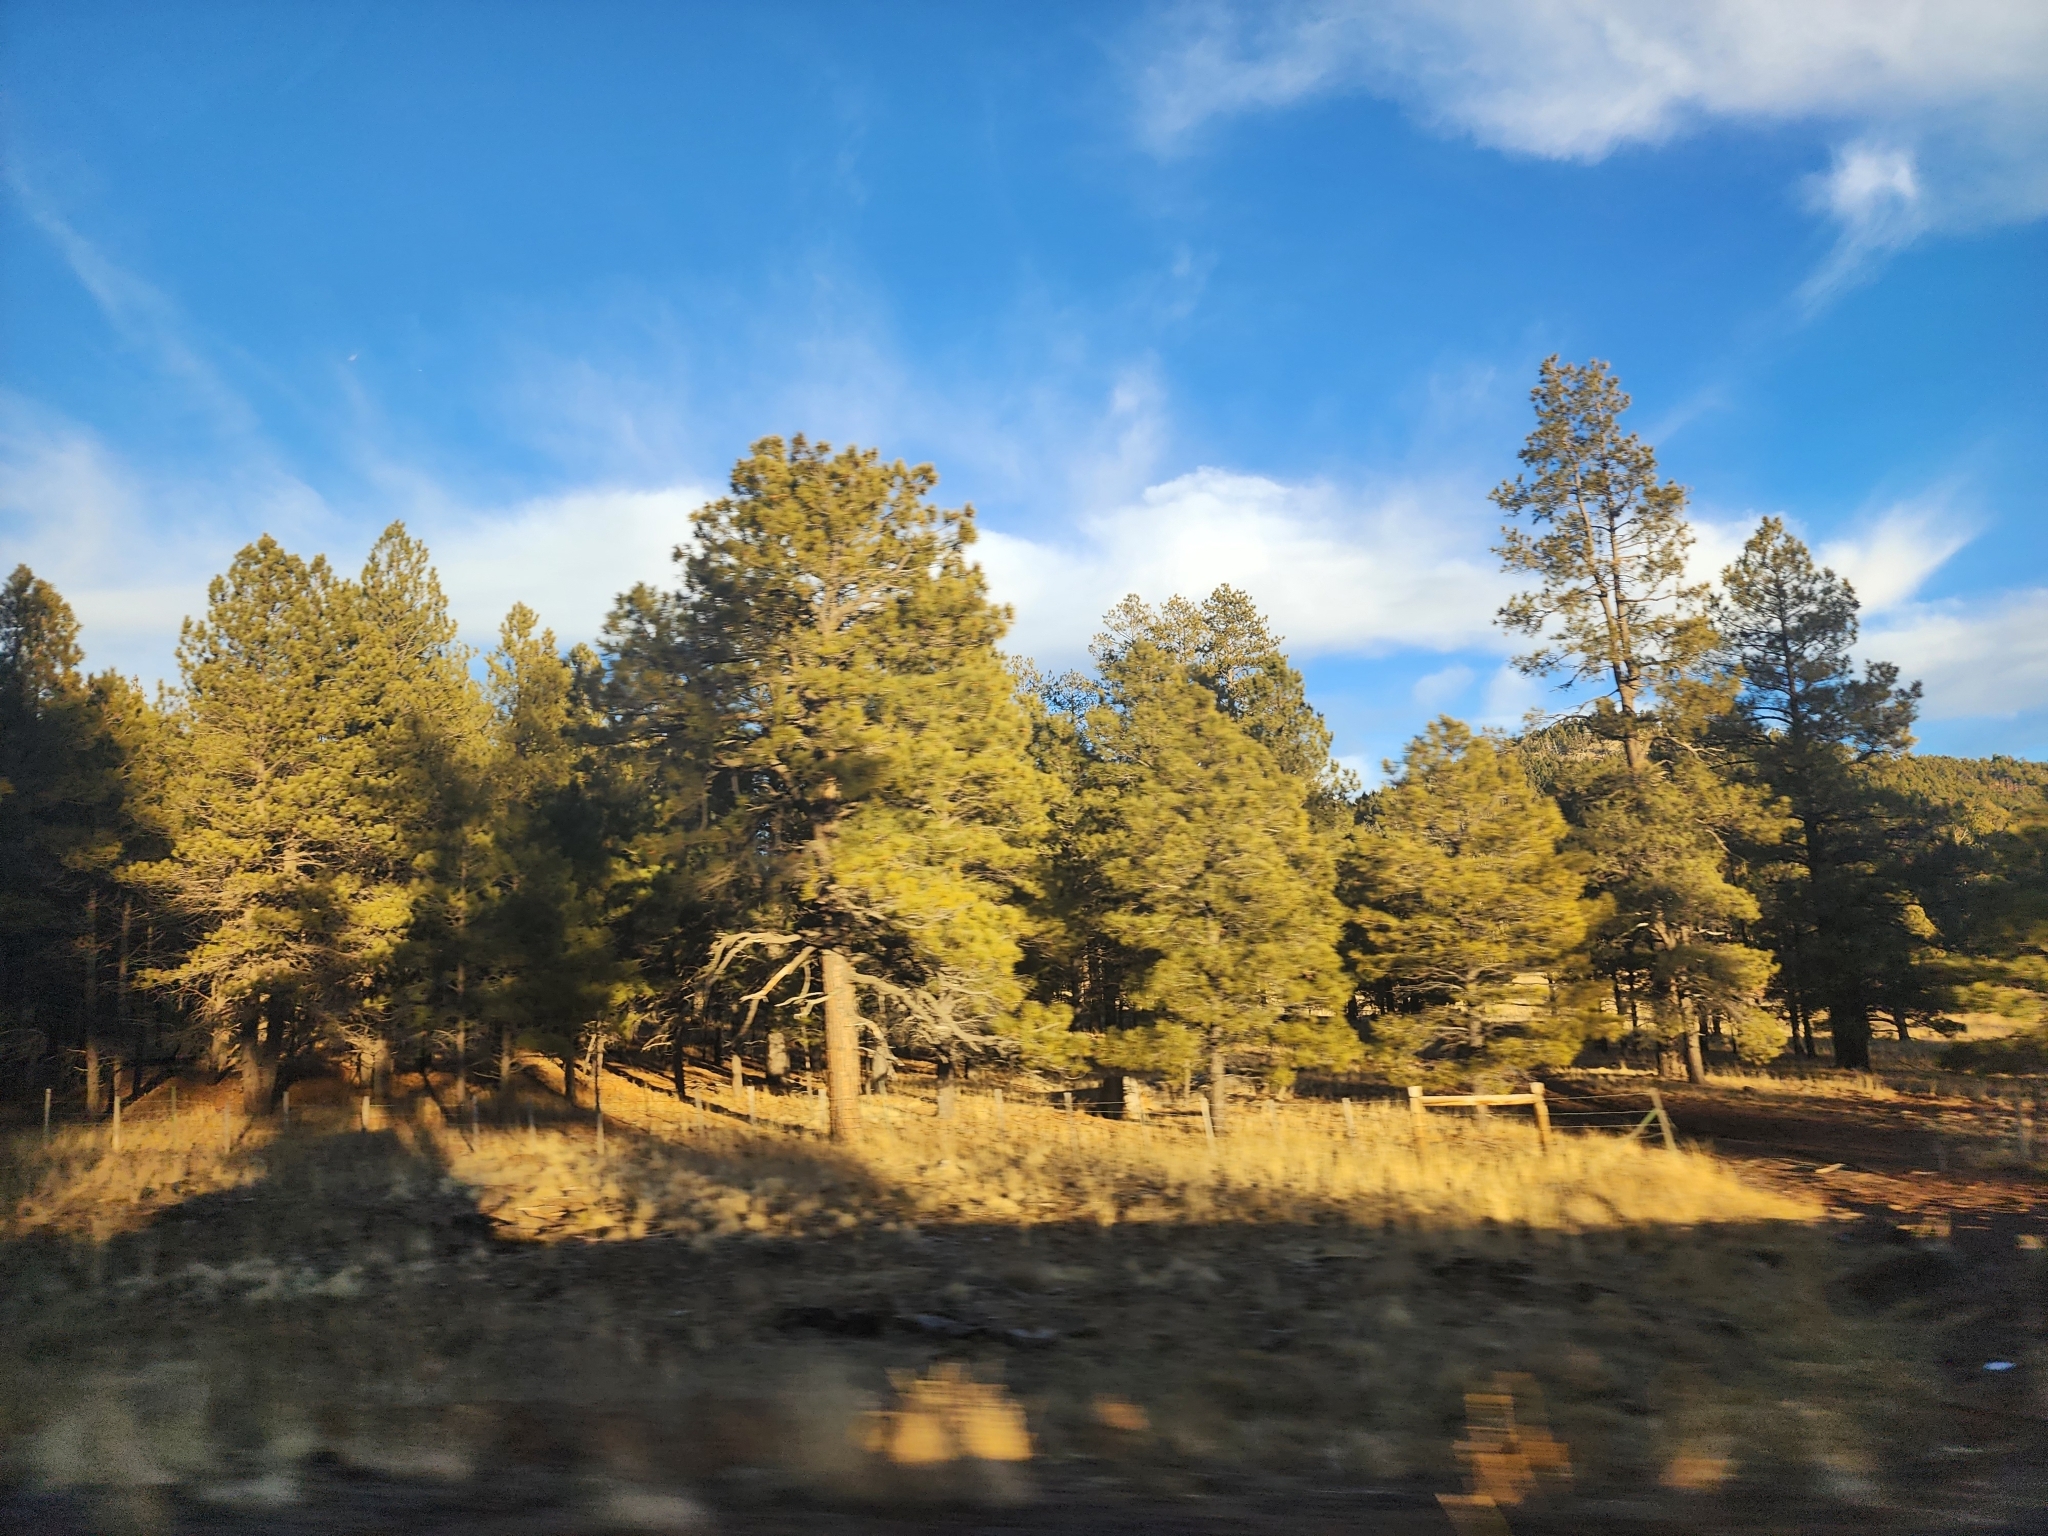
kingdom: Plantae
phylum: Tracheophyta
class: Pinopsida
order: Pinales
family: Pinaceae
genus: Pinus
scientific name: Pinus ponderosa
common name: Western yellow-pine
